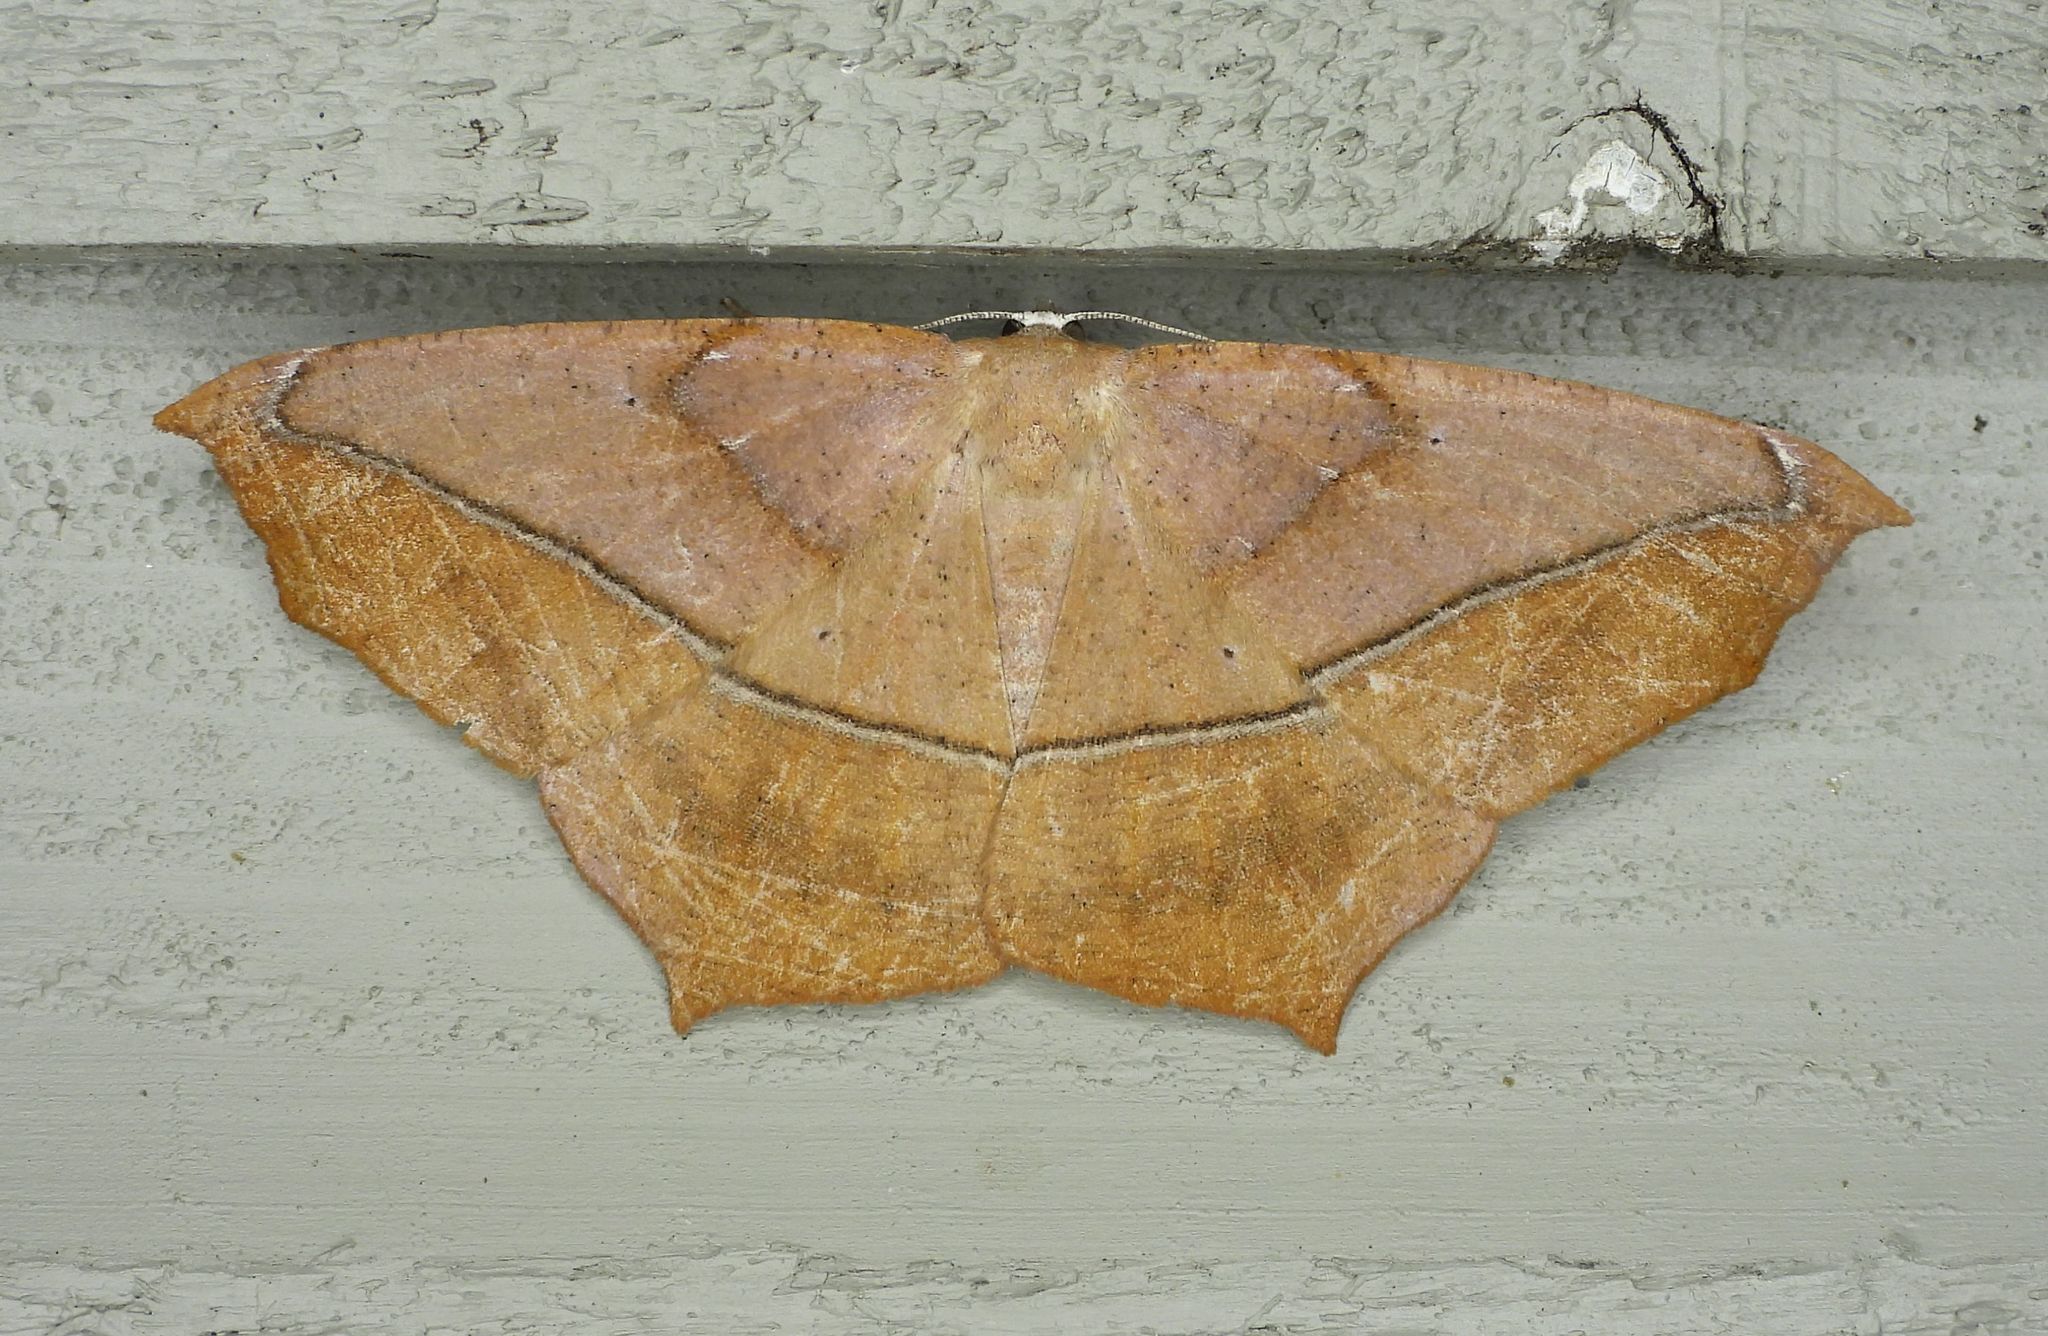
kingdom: Animalia
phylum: Arthropoda
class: Insecta
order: Lepidoptera
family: Geometridae
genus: Prochoerodes
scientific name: Prochoerodes lineola
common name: Large maple spanworm
